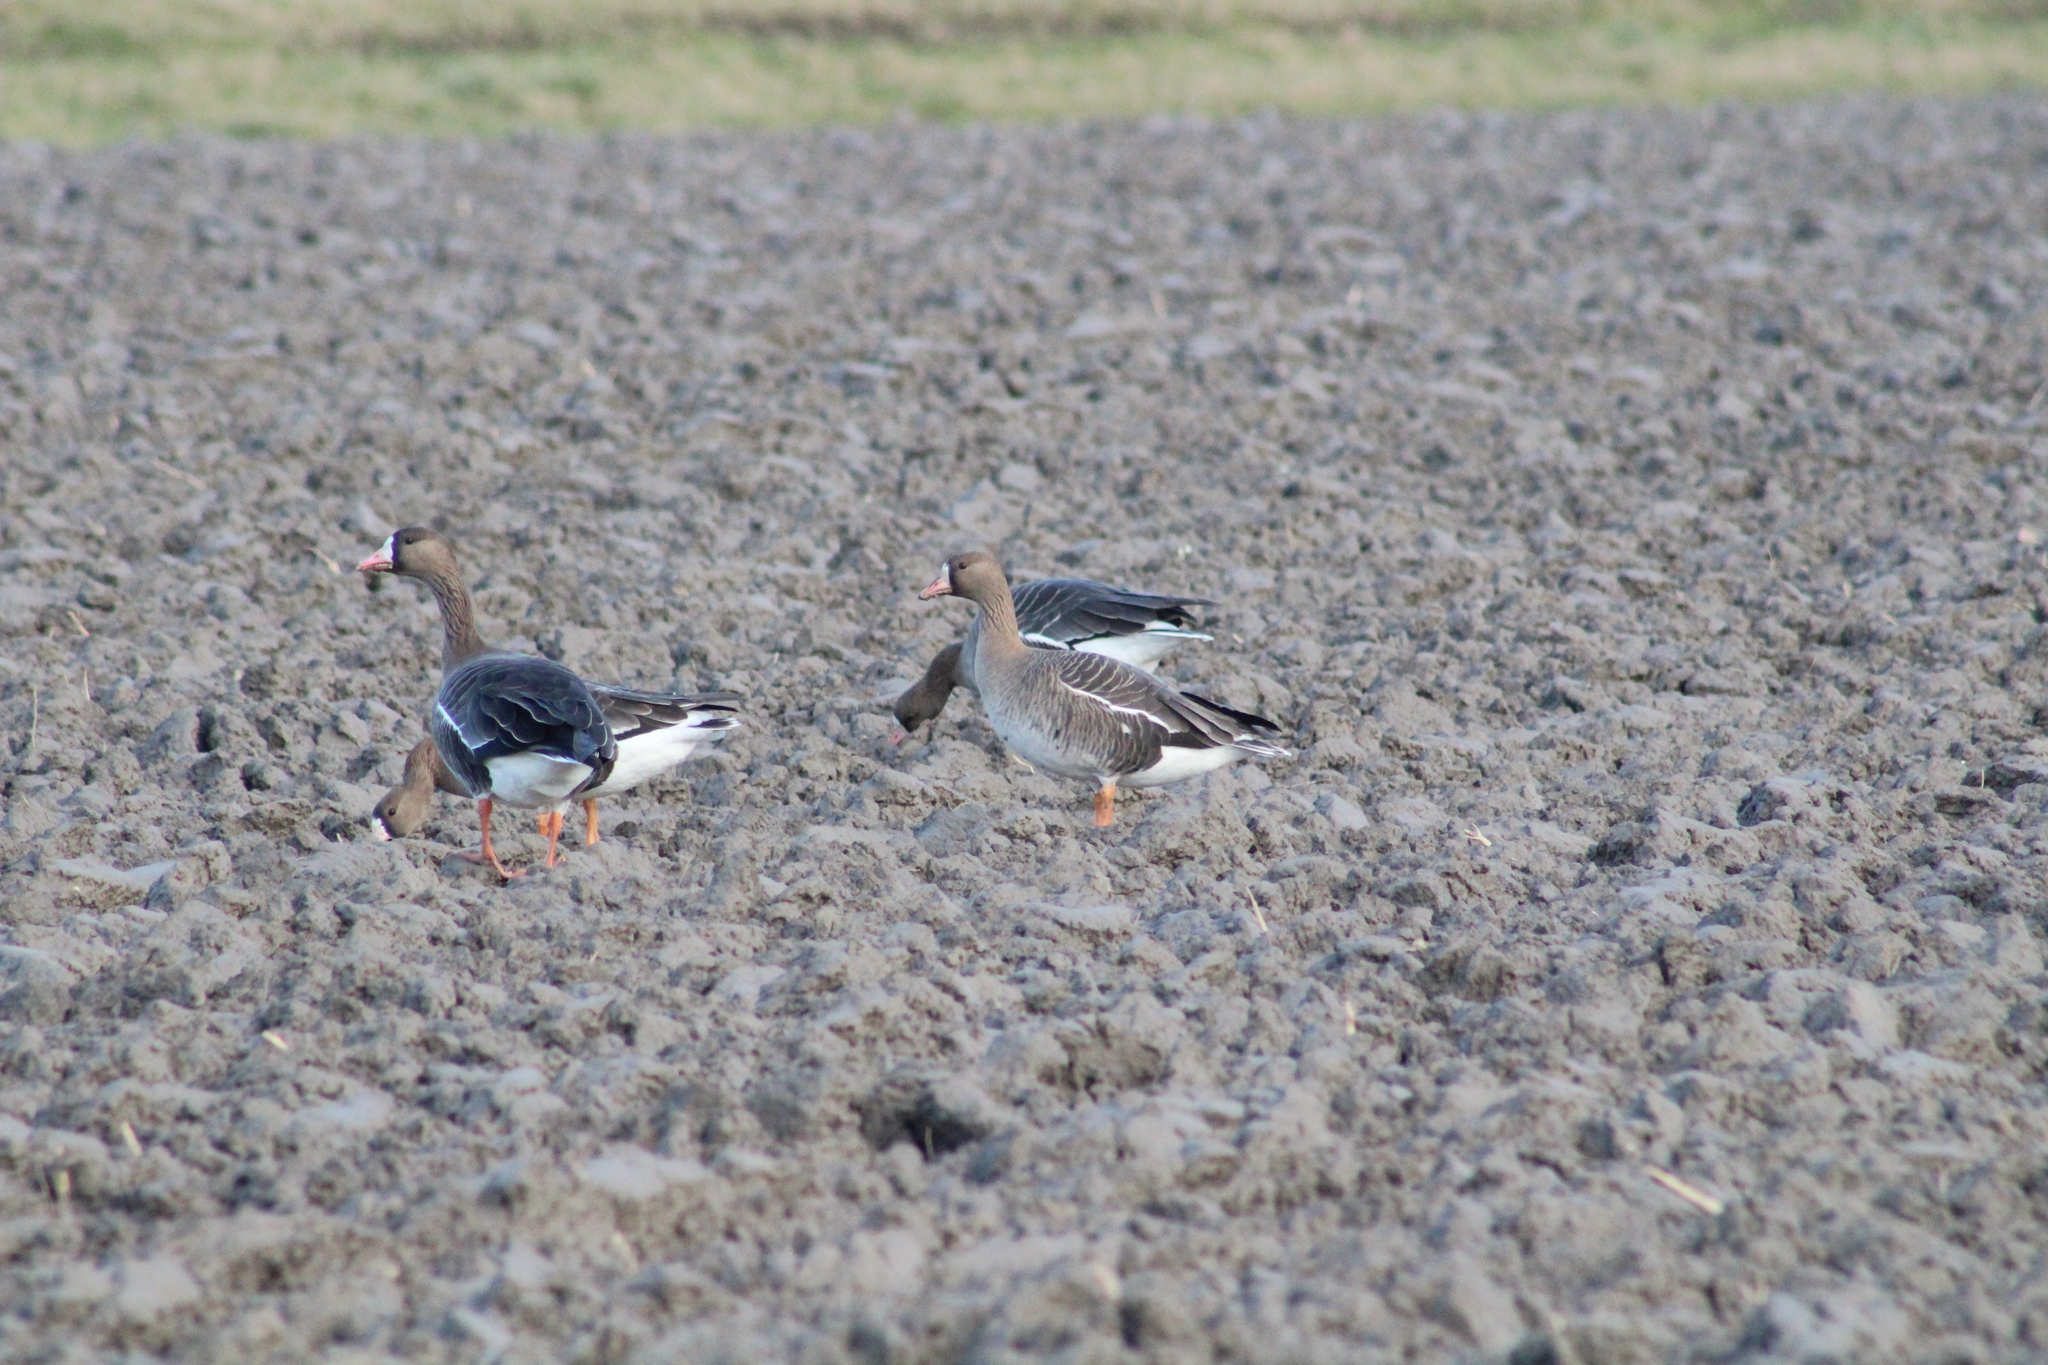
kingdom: Animalia
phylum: Chordata
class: Aves
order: Anseriformes
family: Anatidae
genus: Anser
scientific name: Anser albifrons
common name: Greater white-fronted goose
